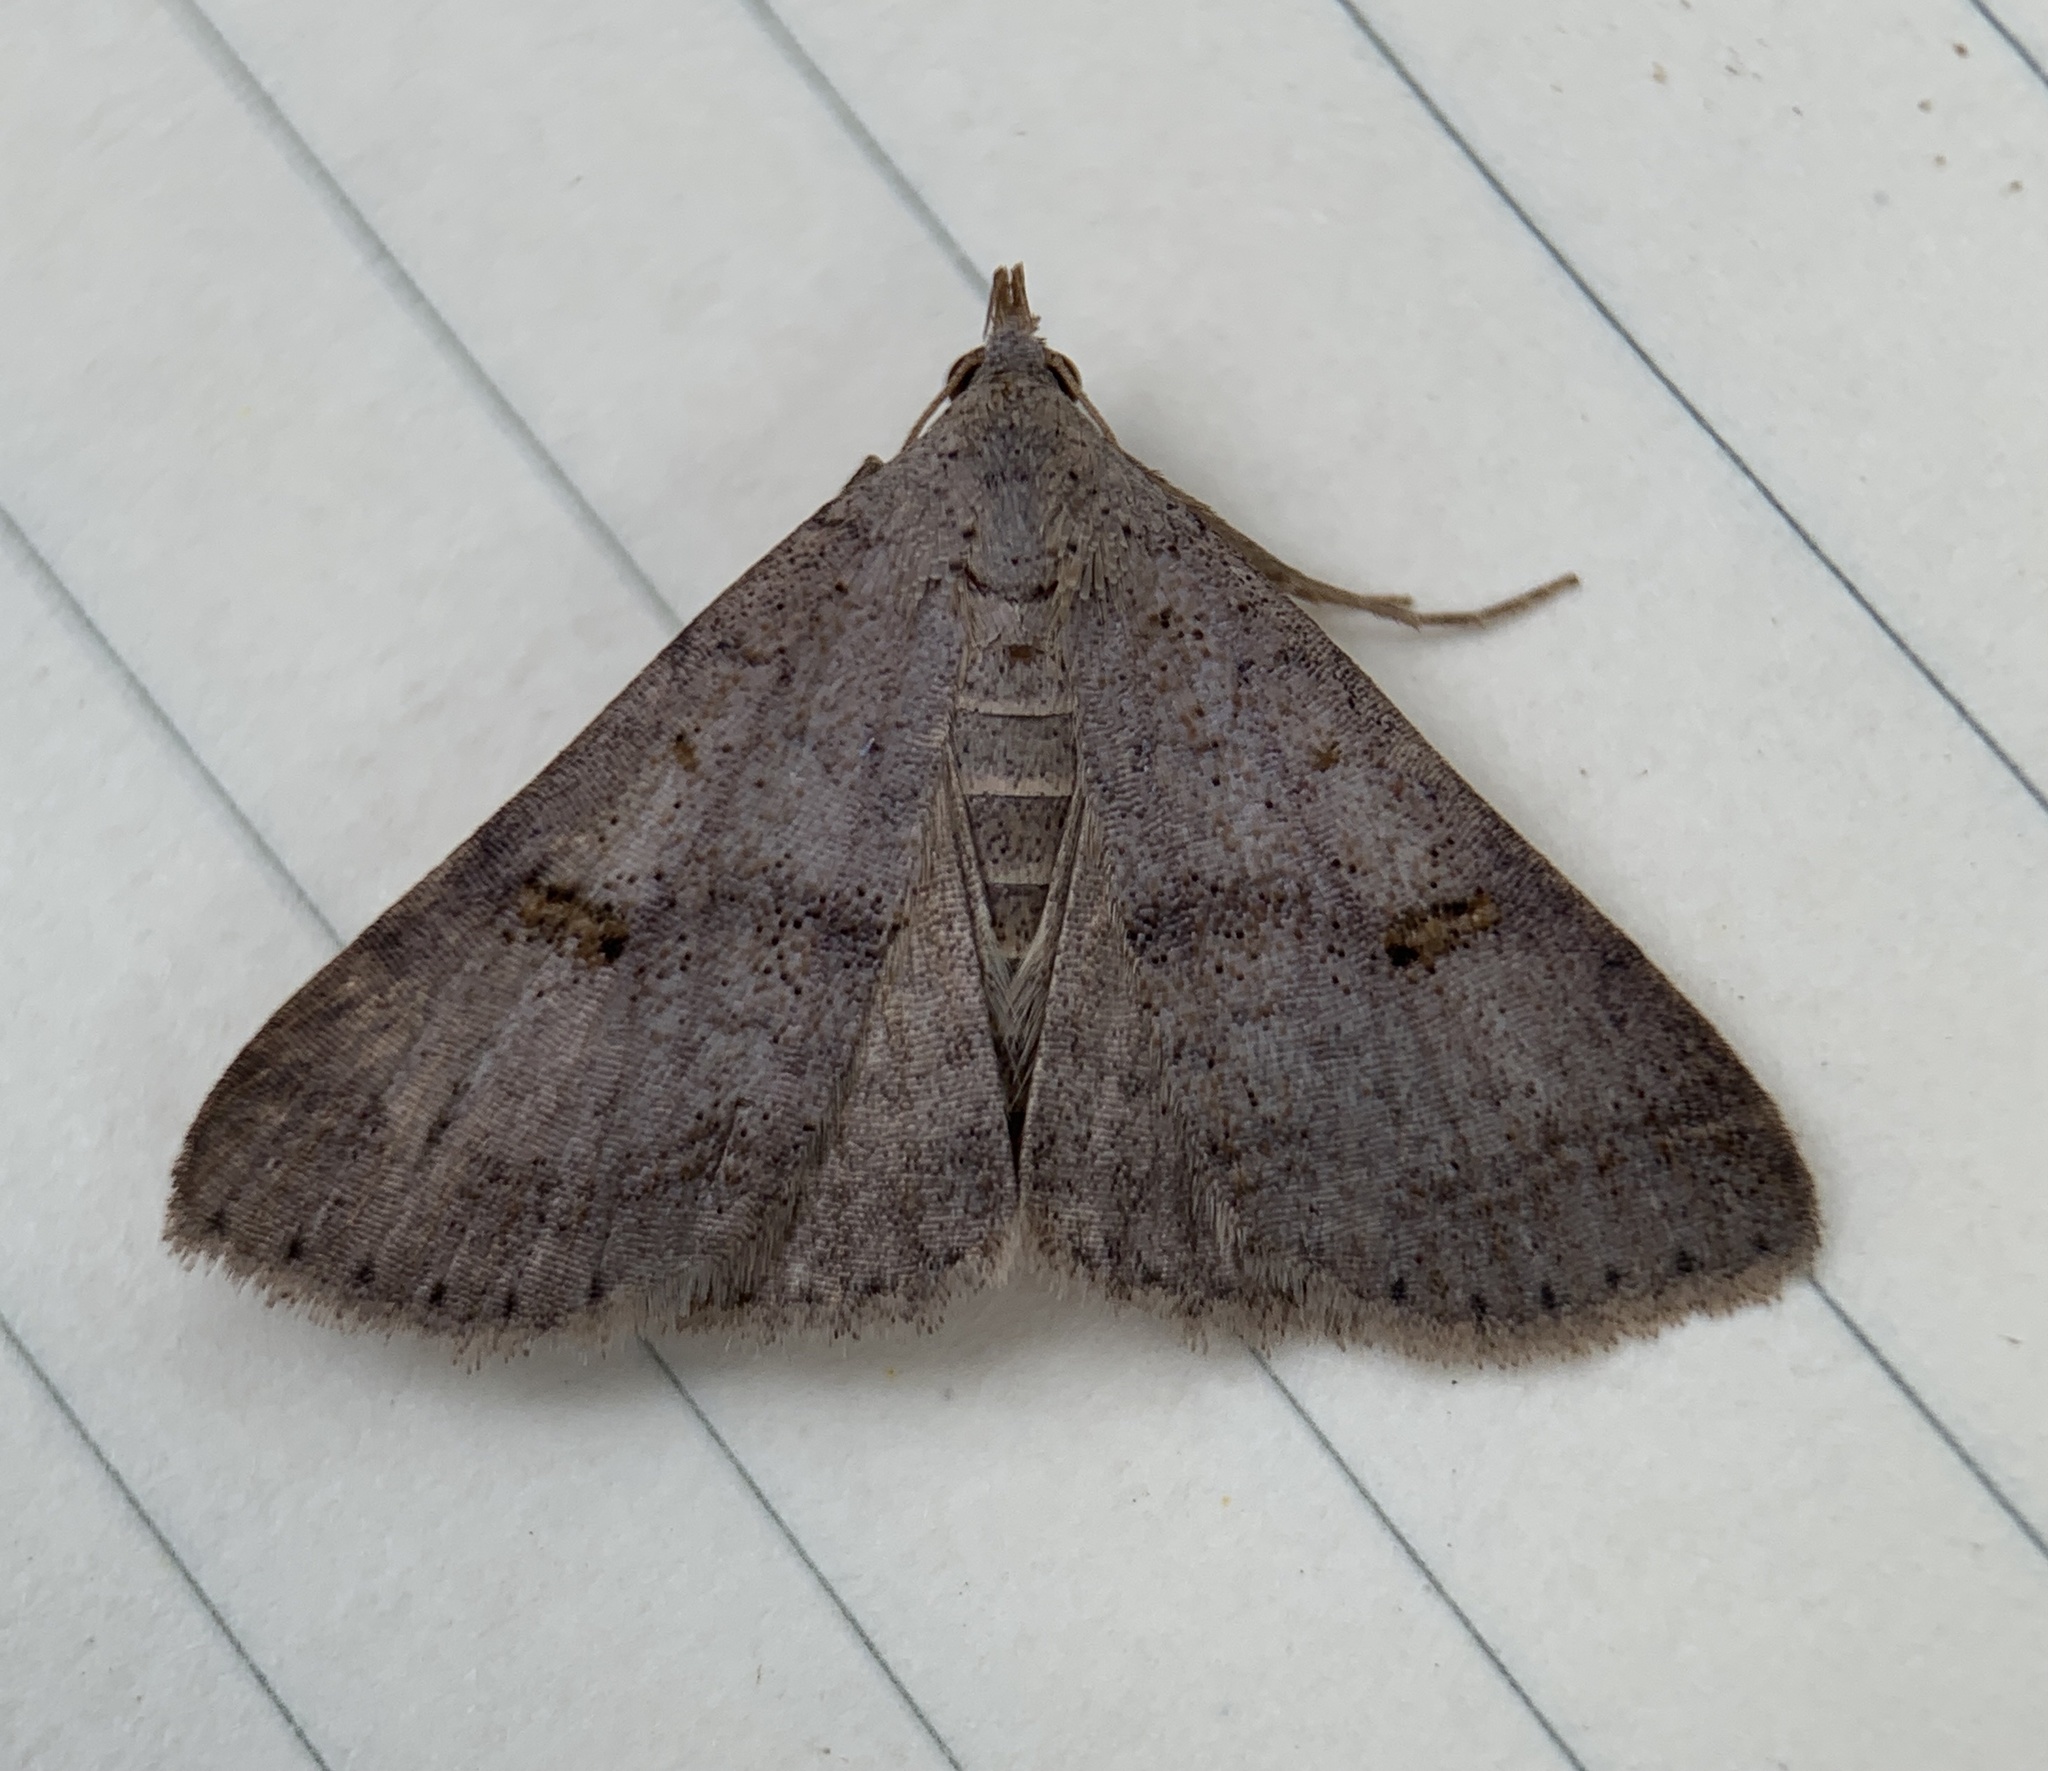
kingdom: Animalia
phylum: Arthropoda
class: Insecta
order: Lepidoptera
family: Erebidae
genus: Bleptina
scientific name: Bleptina caradrinalis
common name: Bent-winged owlet
